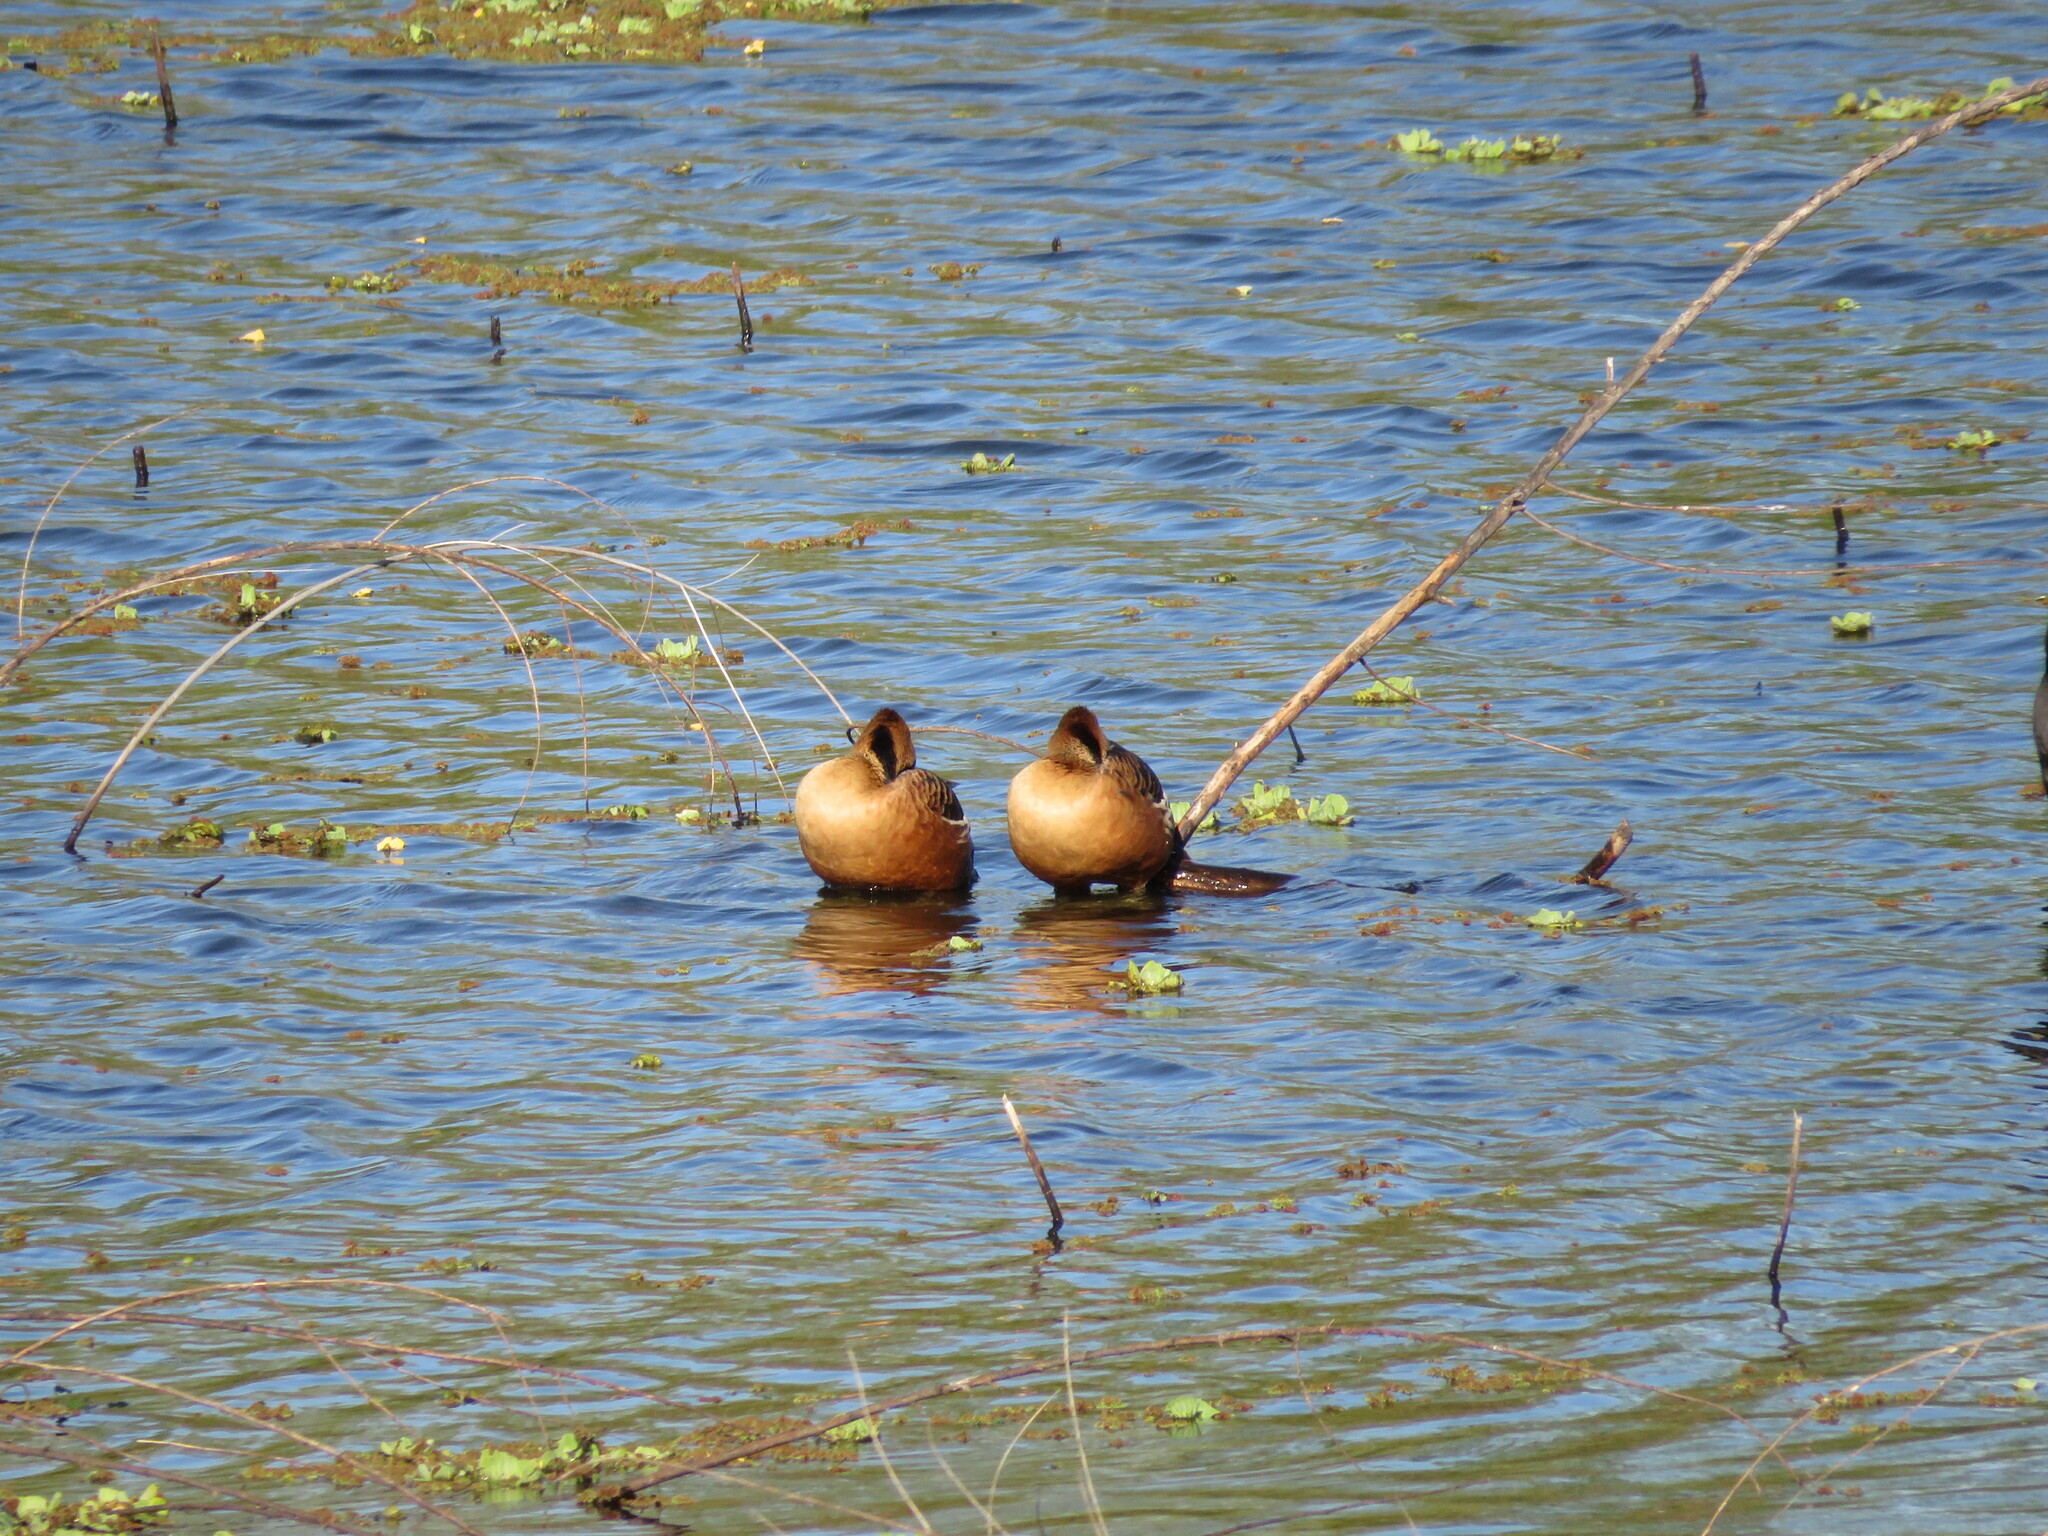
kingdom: Animalia
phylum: Chordata
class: Aves
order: Anseriformes
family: Anatidae
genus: Dendrocygna
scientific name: Dendrocygna bicolor
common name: Fulvous whistling duck
